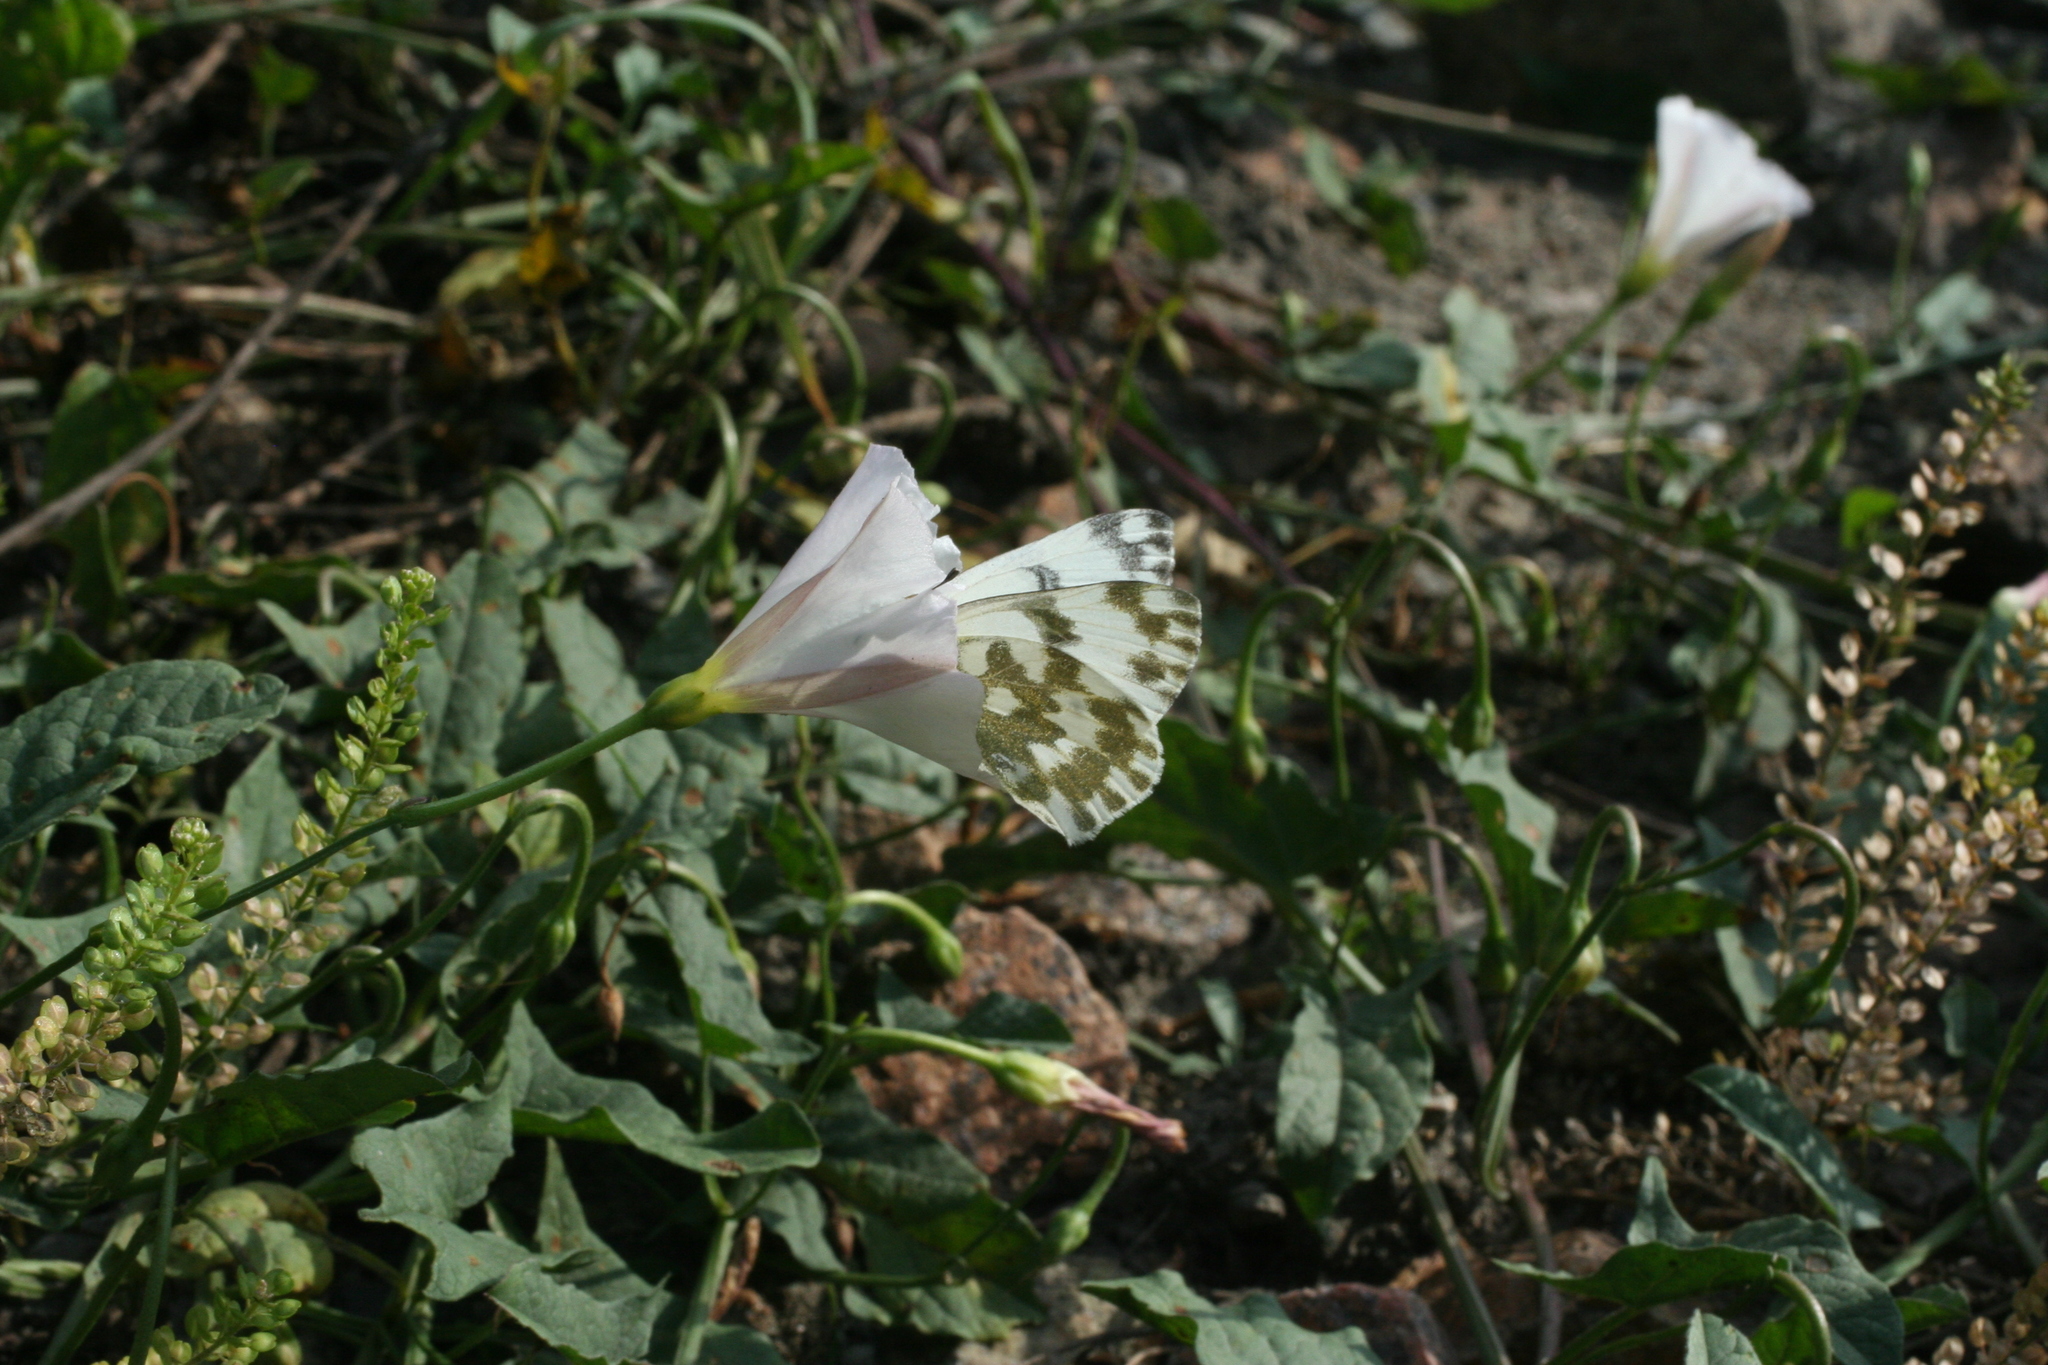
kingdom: Animalia
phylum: Arthropoda
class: Insecta
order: Lepidoptera
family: Pieridae
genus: Pontia
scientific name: Pontia edusa
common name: Eastern bath white
